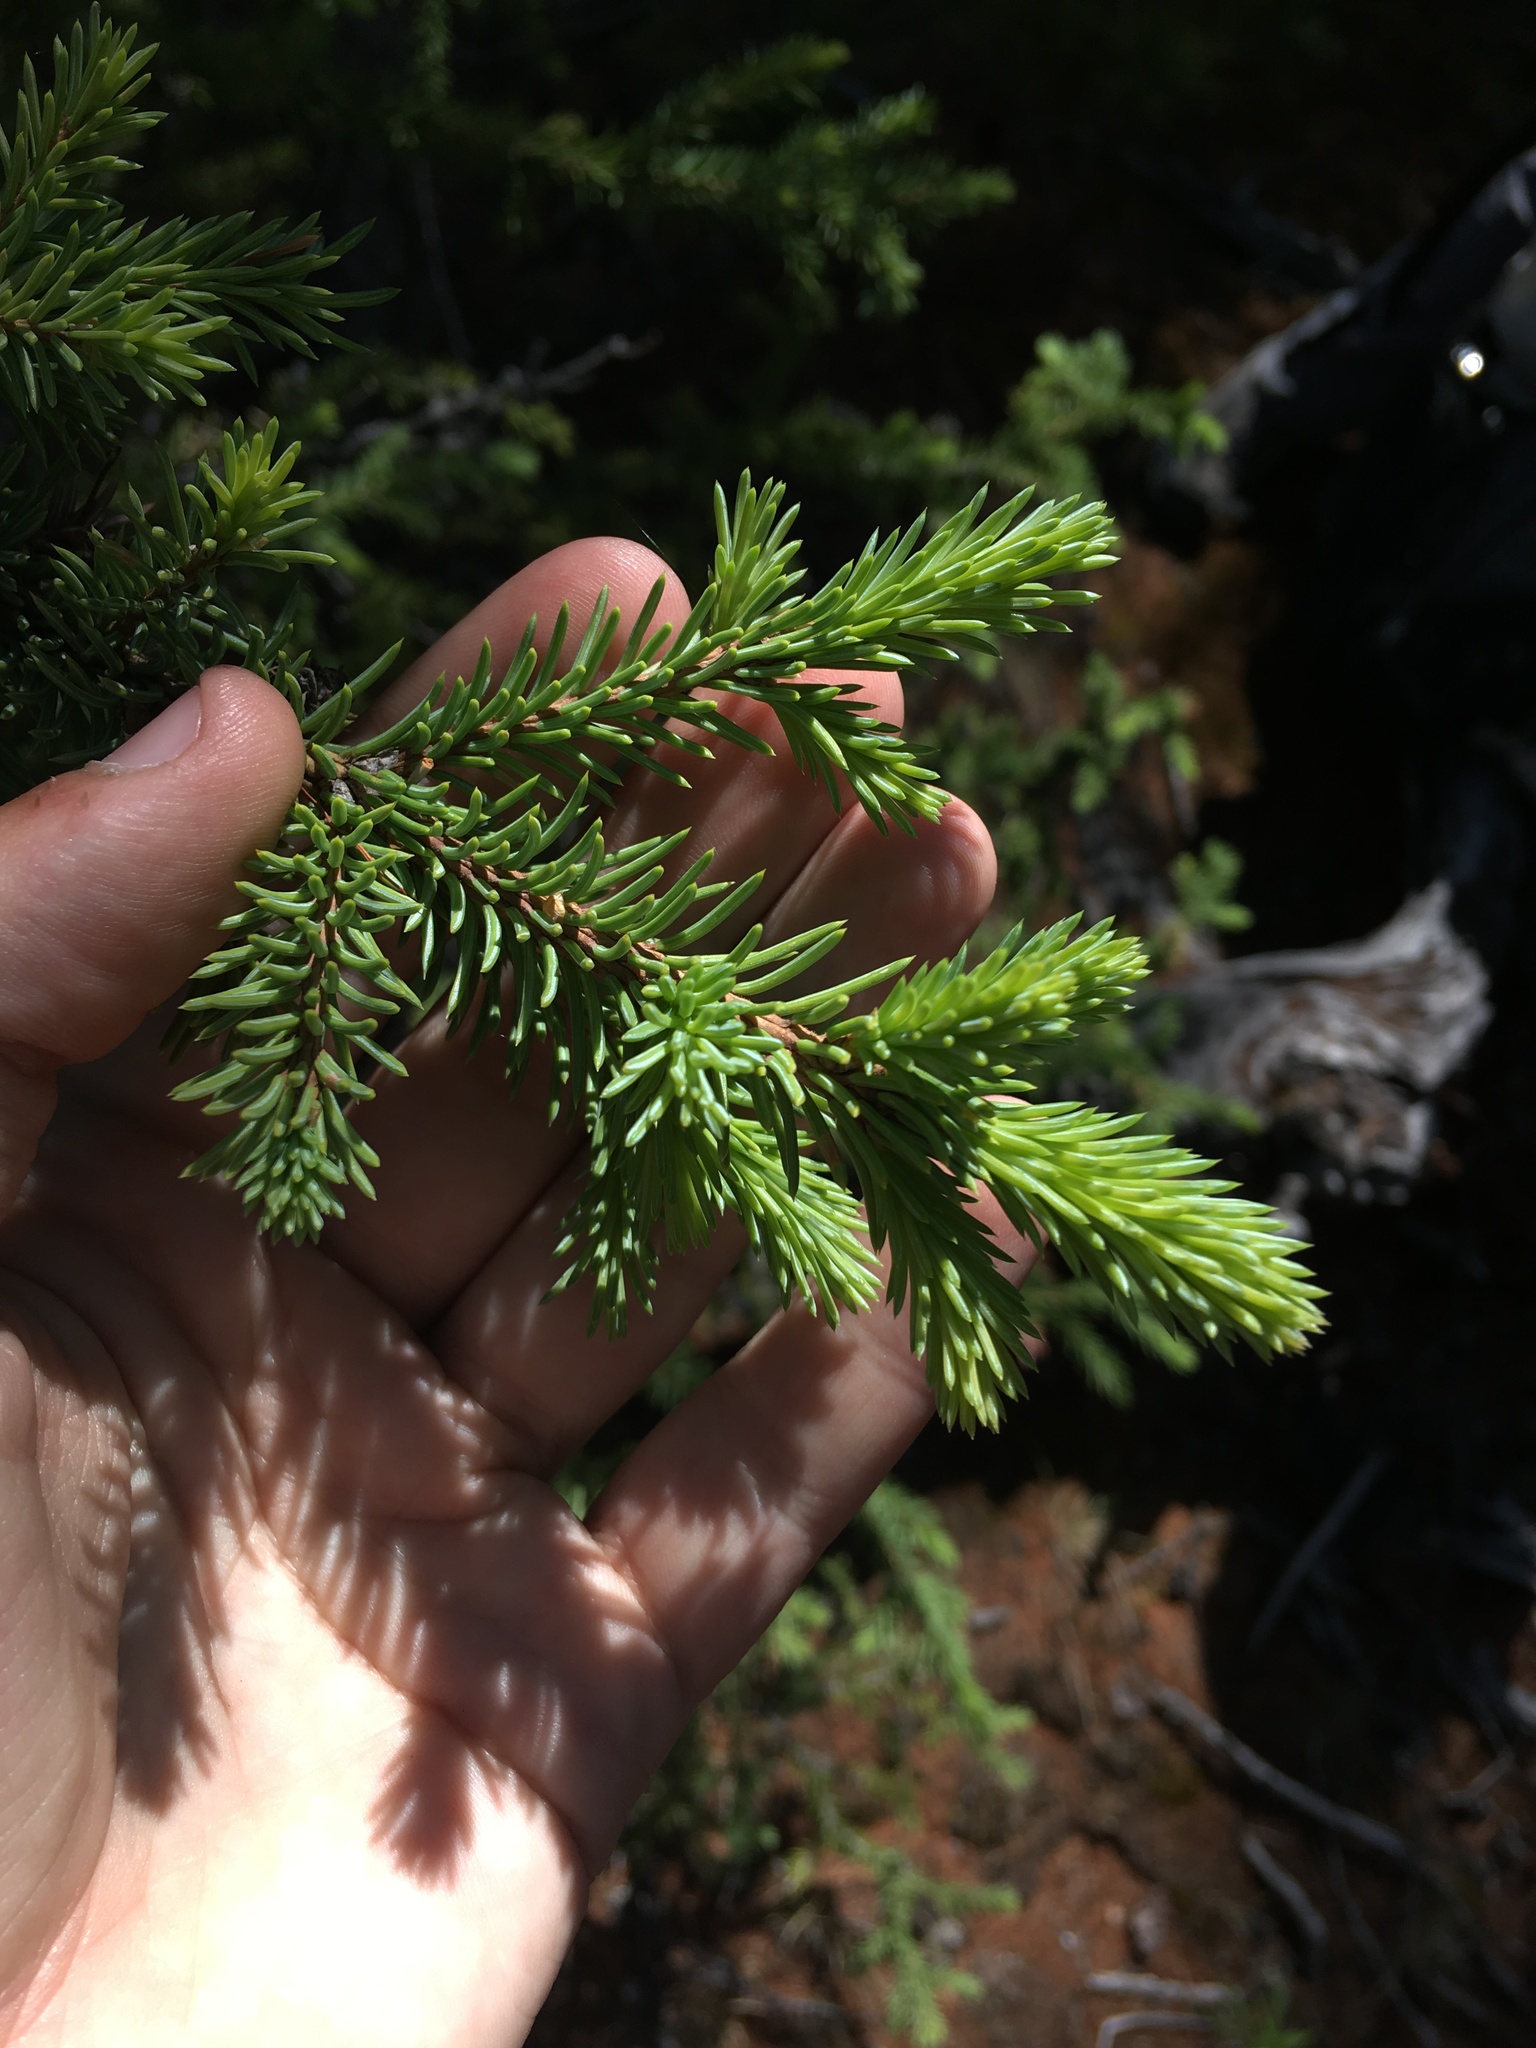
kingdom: Plantae
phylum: Tracheophyta
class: Pinopsida
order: Pinales
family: Pinaceae
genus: Picea
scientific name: Picea obovata
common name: Siberian spruce
